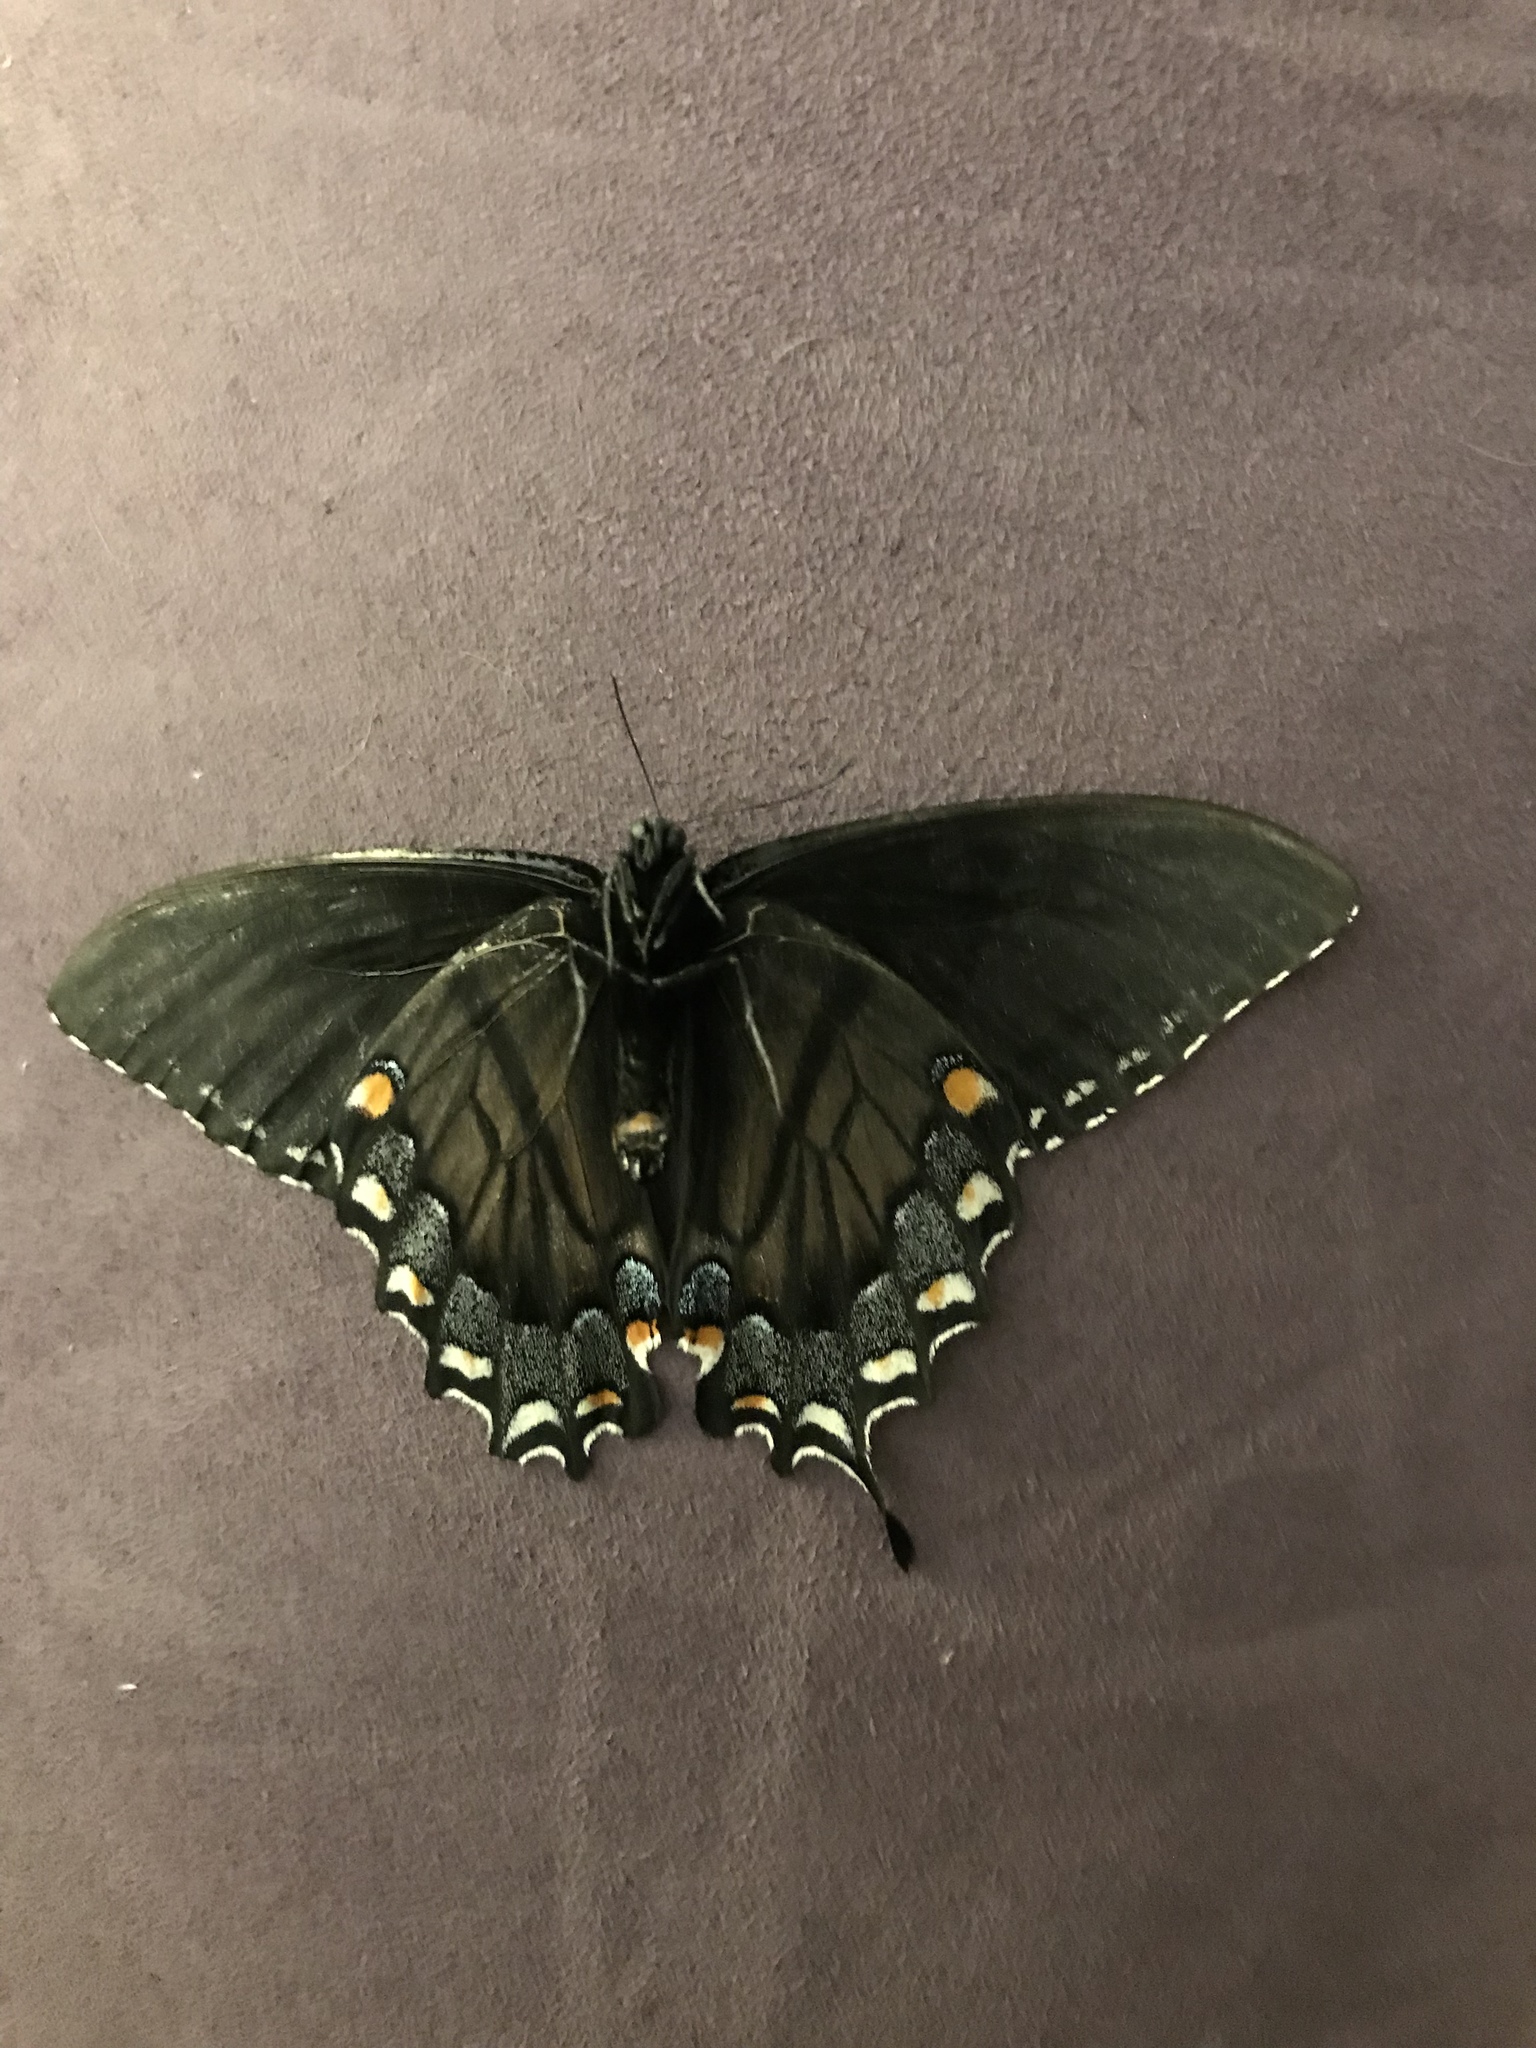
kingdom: Animalia
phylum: Arthropoda
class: Insecta
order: Lepidoptera
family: Papilionidae
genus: Papilio
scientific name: Papilio glaucus
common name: Tiger swallowtail
